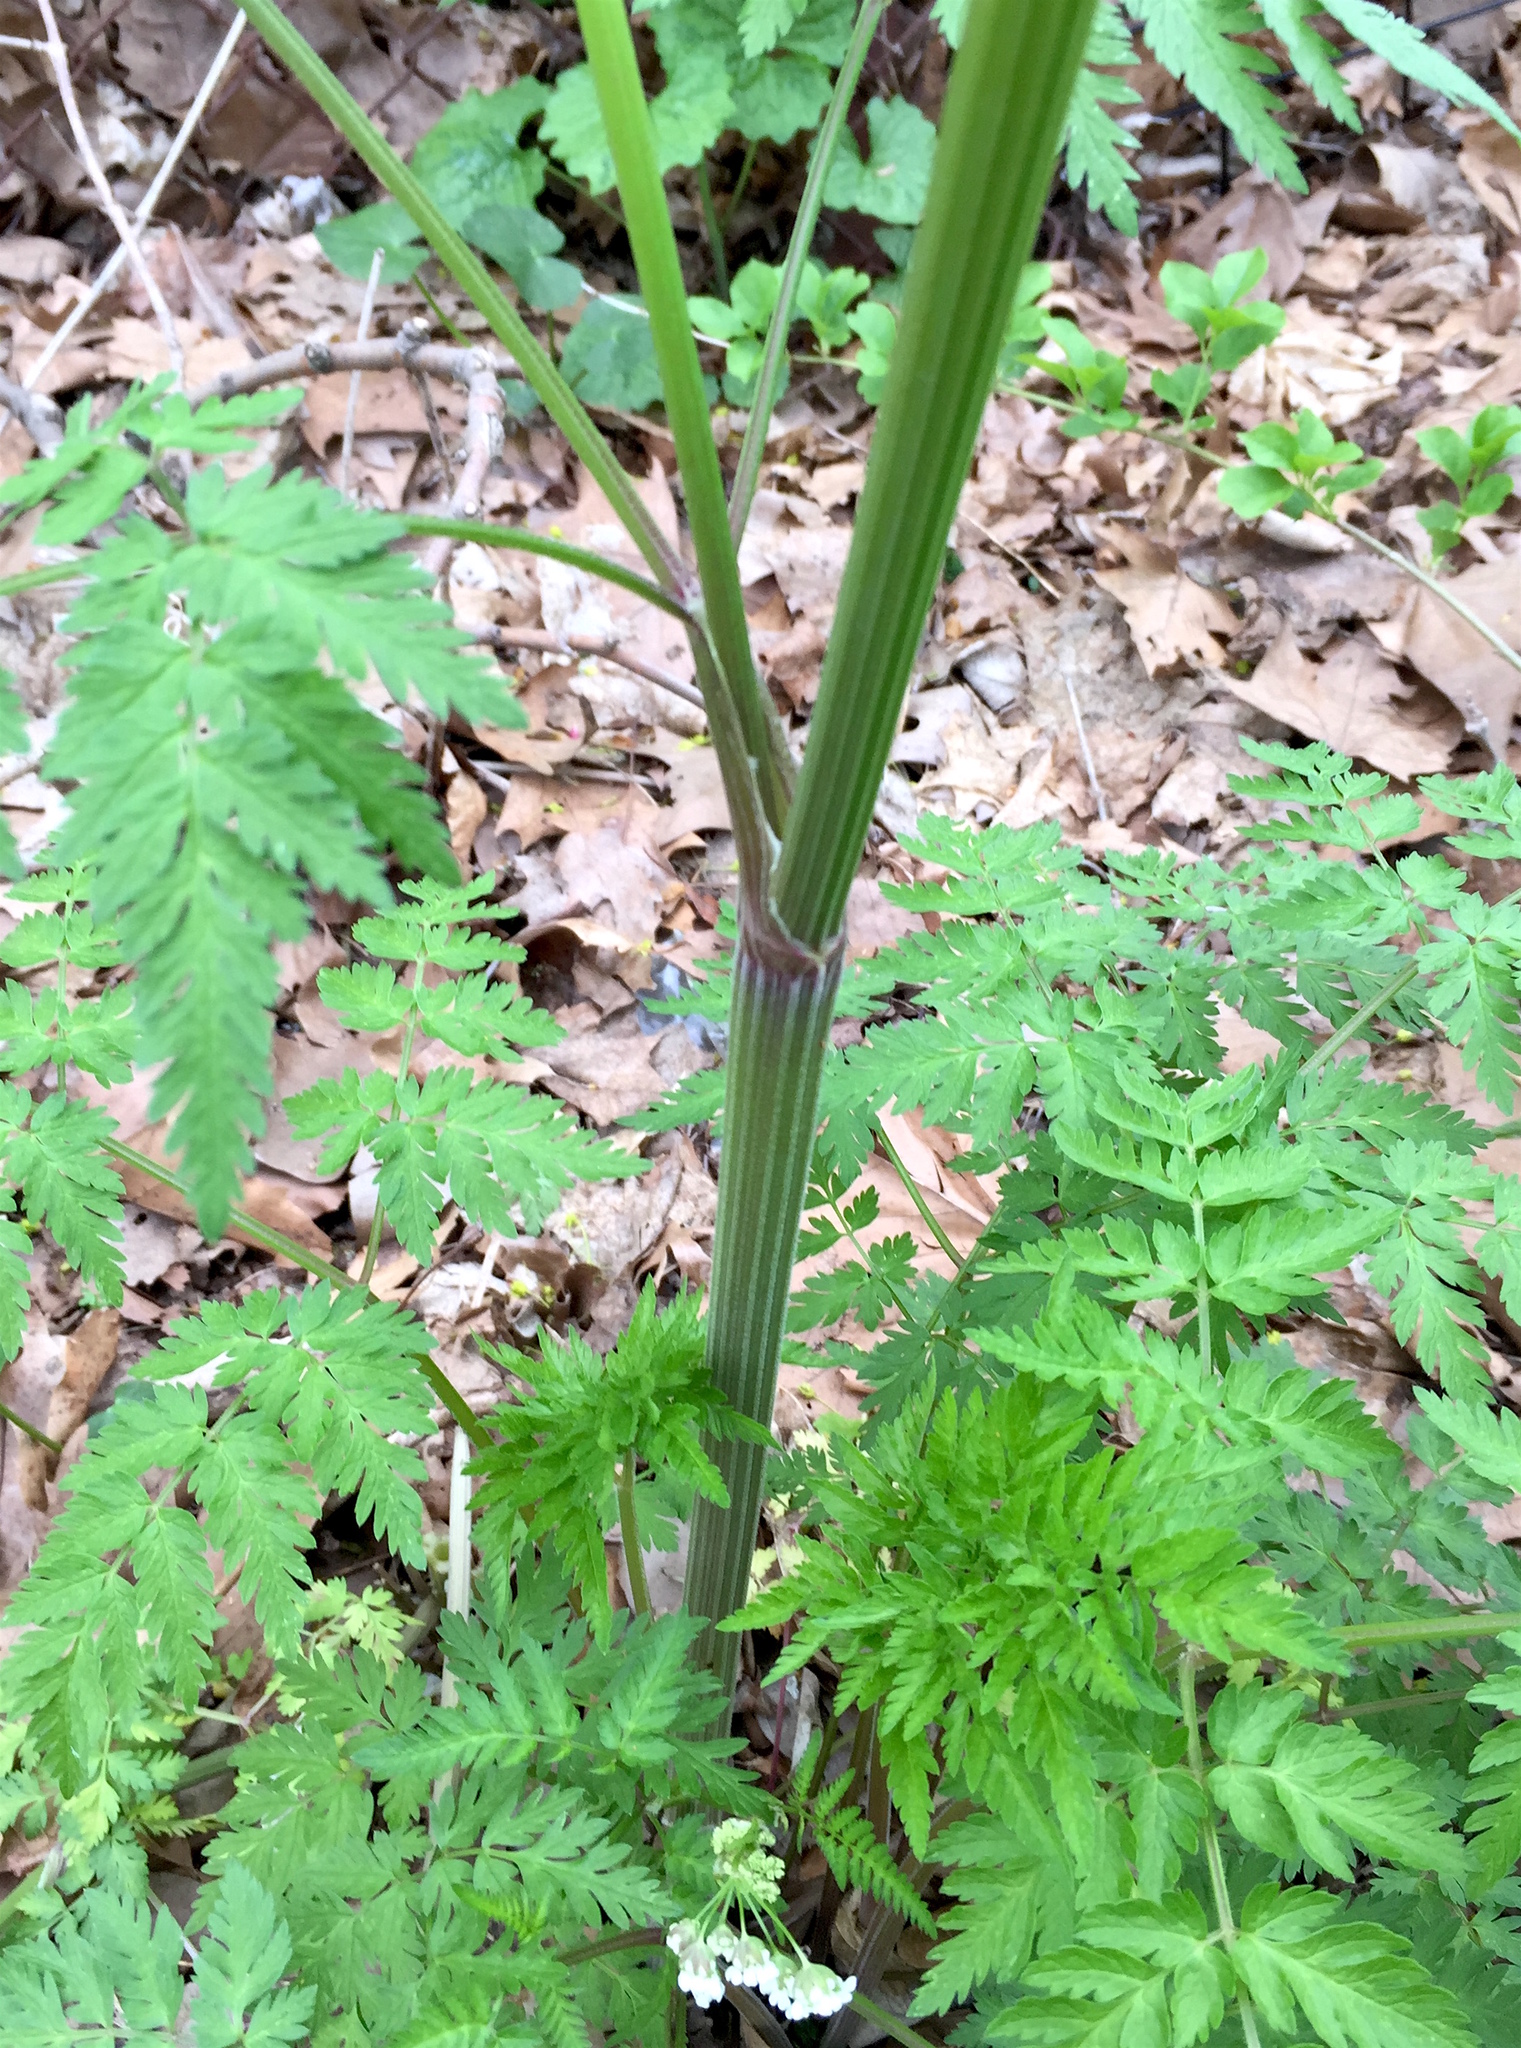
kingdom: Plantae
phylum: Tracheophyta
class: Magnoliopsida
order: Apiales
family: Apiaceae
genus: Anthriscus
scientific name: Anthriscus sylvestris
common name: Cow parsley
